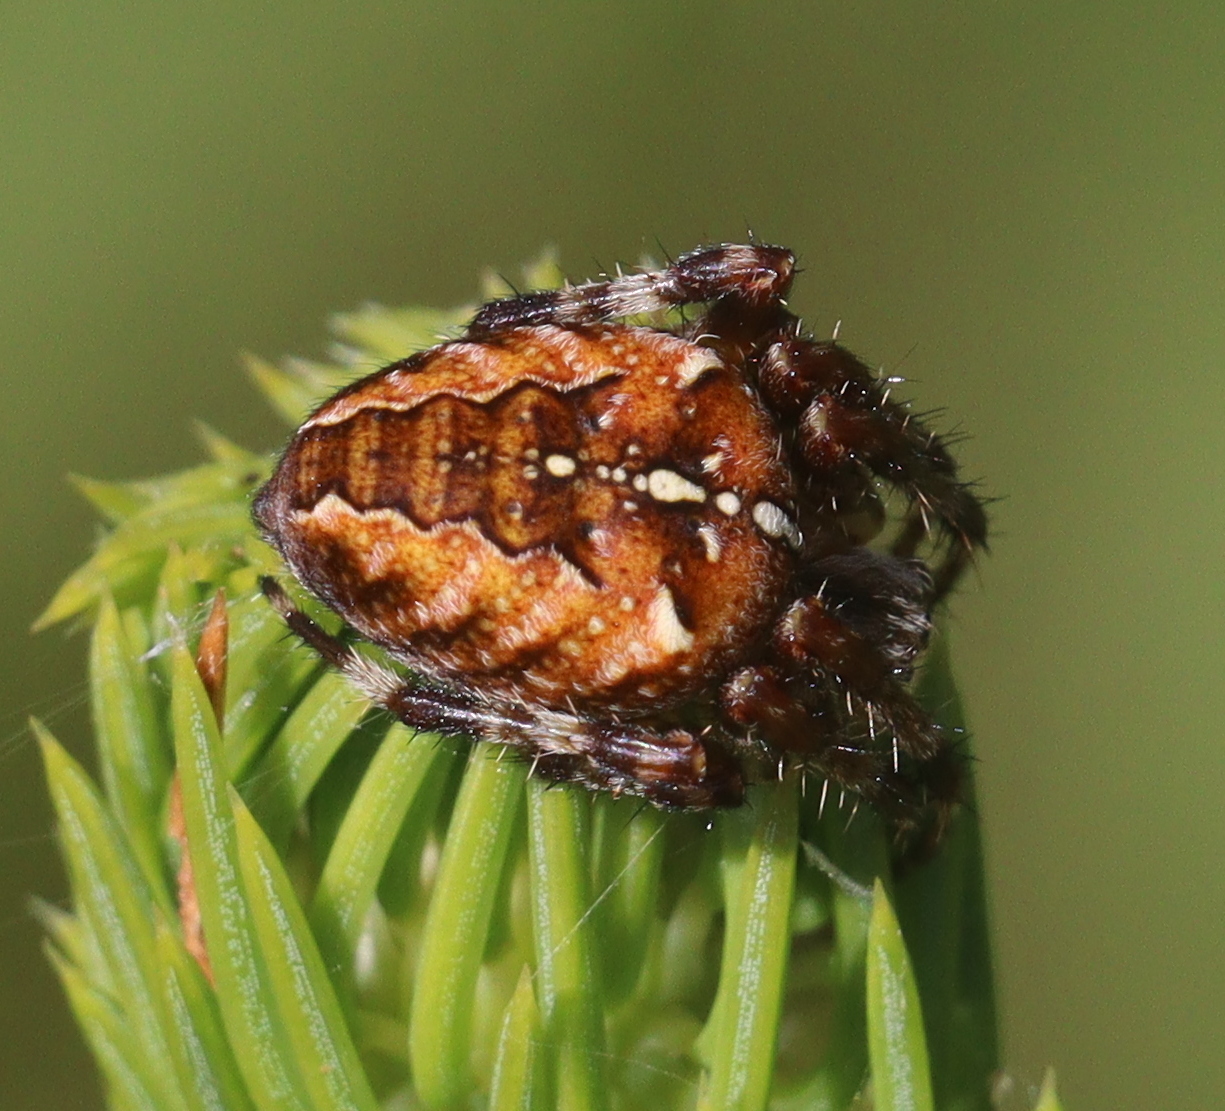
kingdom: Animalia
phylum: Arthropoda
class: Arachnida
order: Araneae
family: Araneidae
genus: Araneus
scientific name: Araneus diadematus
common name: Cross orbweaver
